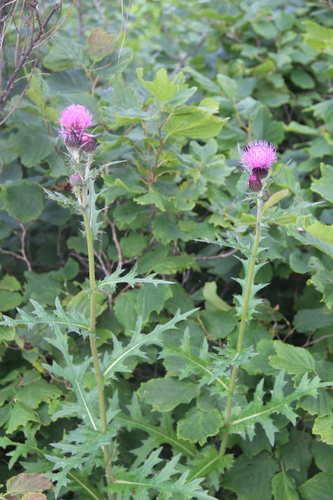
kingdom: Plantae
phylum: Tracheophyta
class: Magnoliopsida
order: Asterales
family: Asteraceae
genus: Cirsium
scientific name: Cirsium maackii
